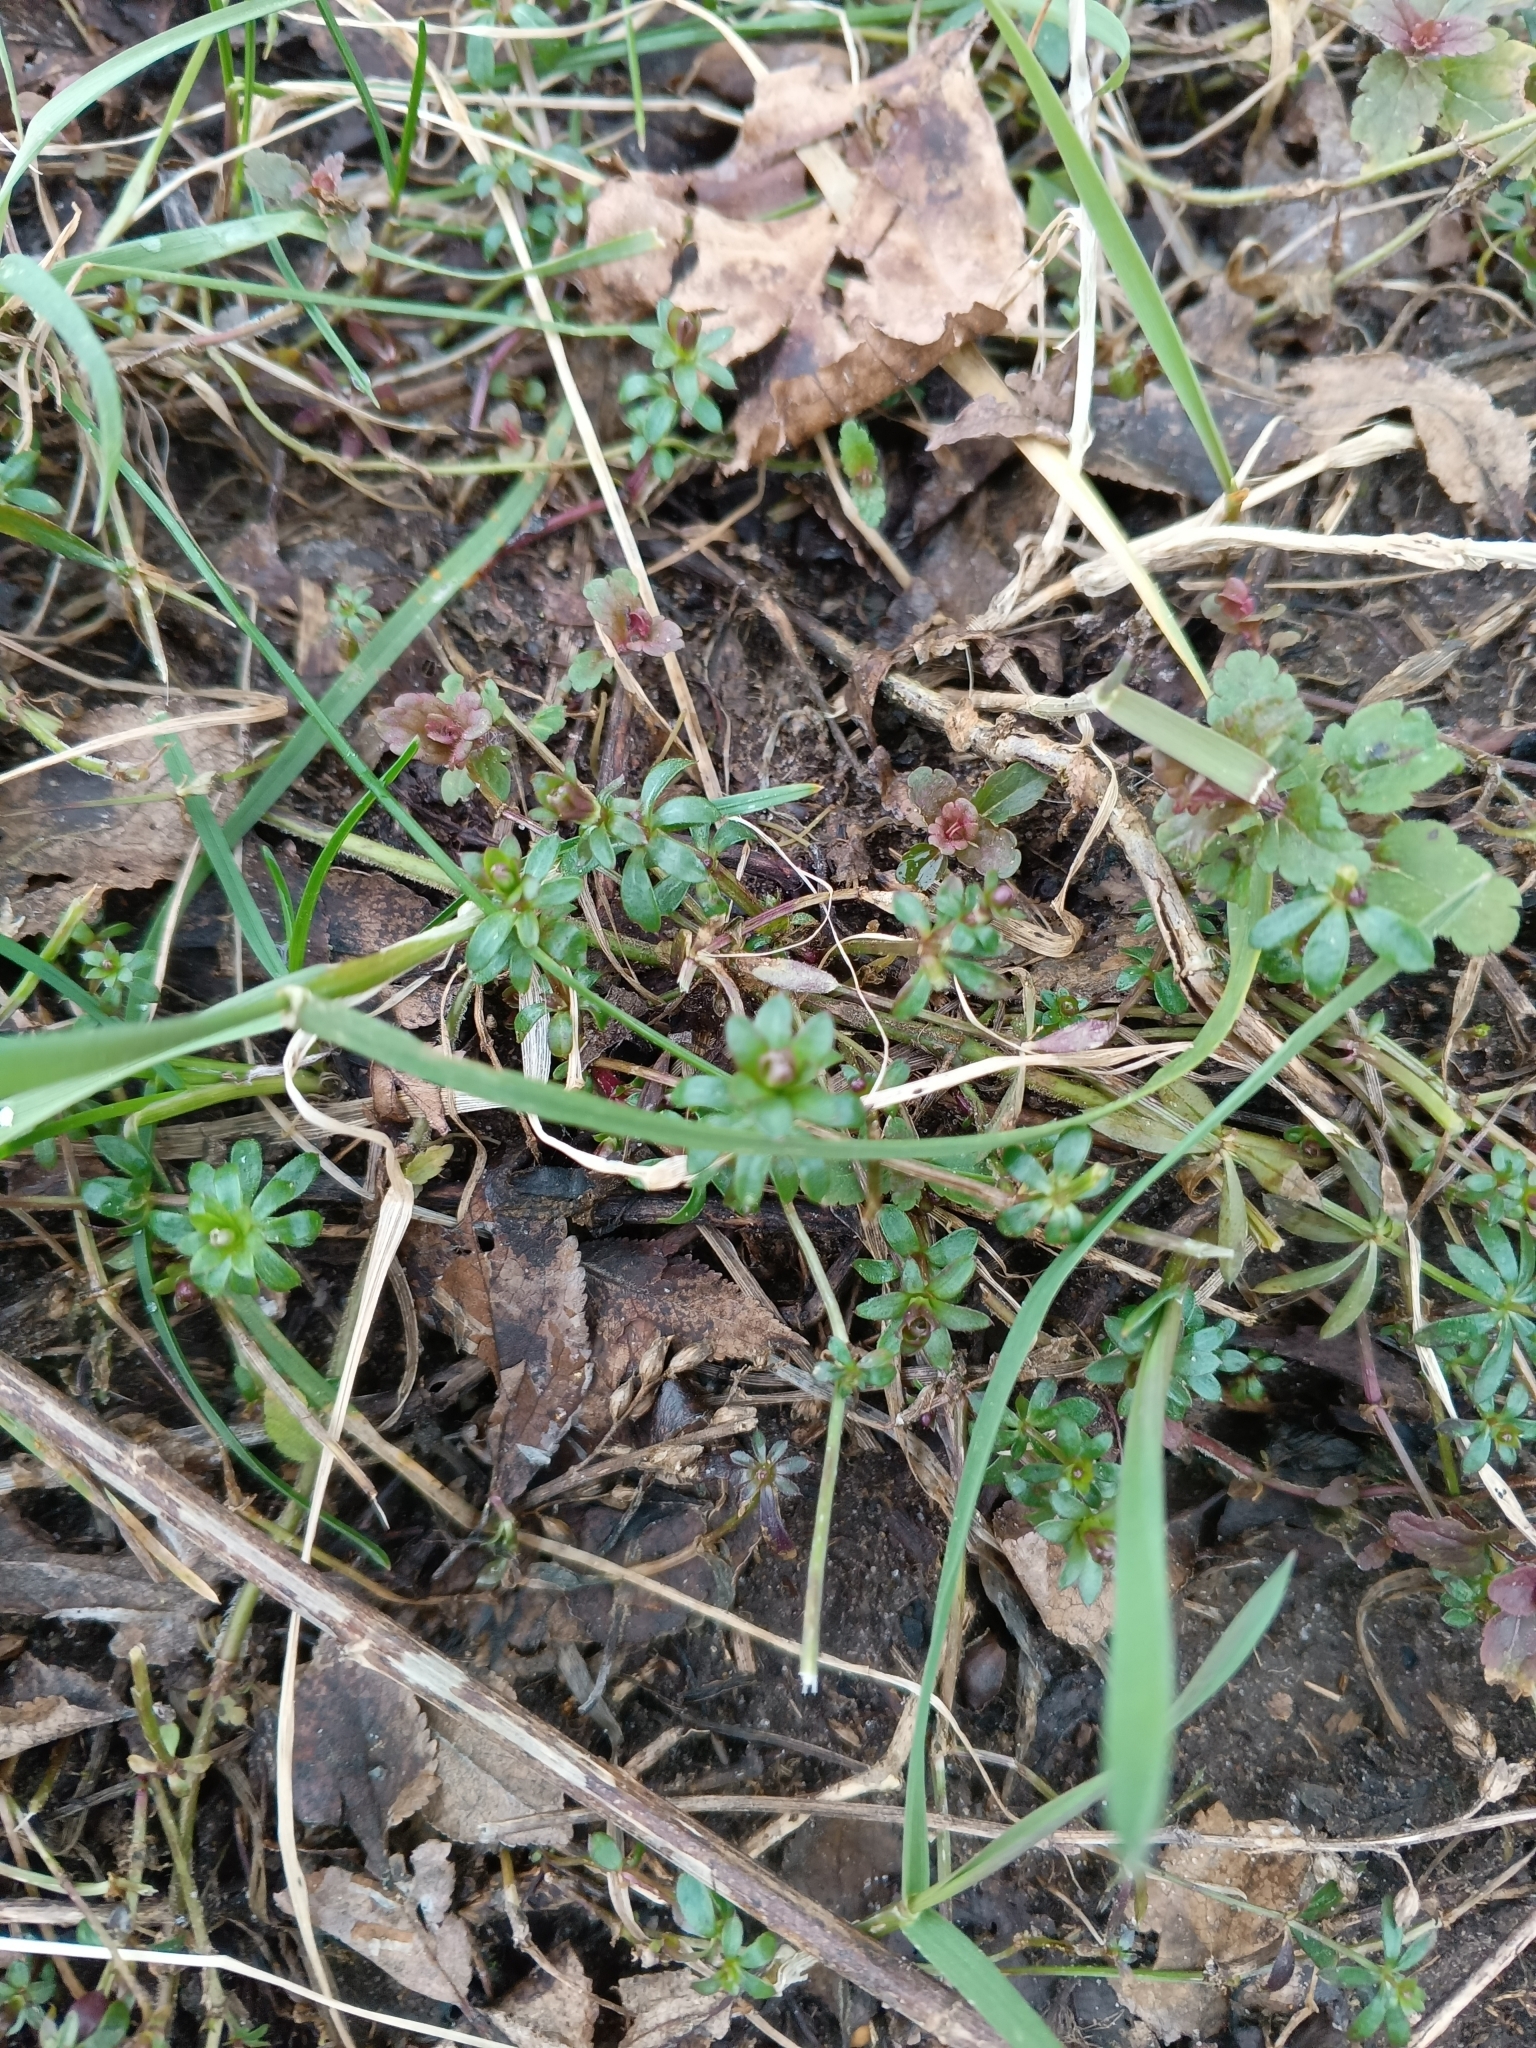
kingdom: Plantae
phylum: Tracheophyta
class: Magnoliopsida
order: Gentianales
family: Rubiaceae
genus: Galium
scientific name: Galium mollugo
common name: Hedge bedstraw
